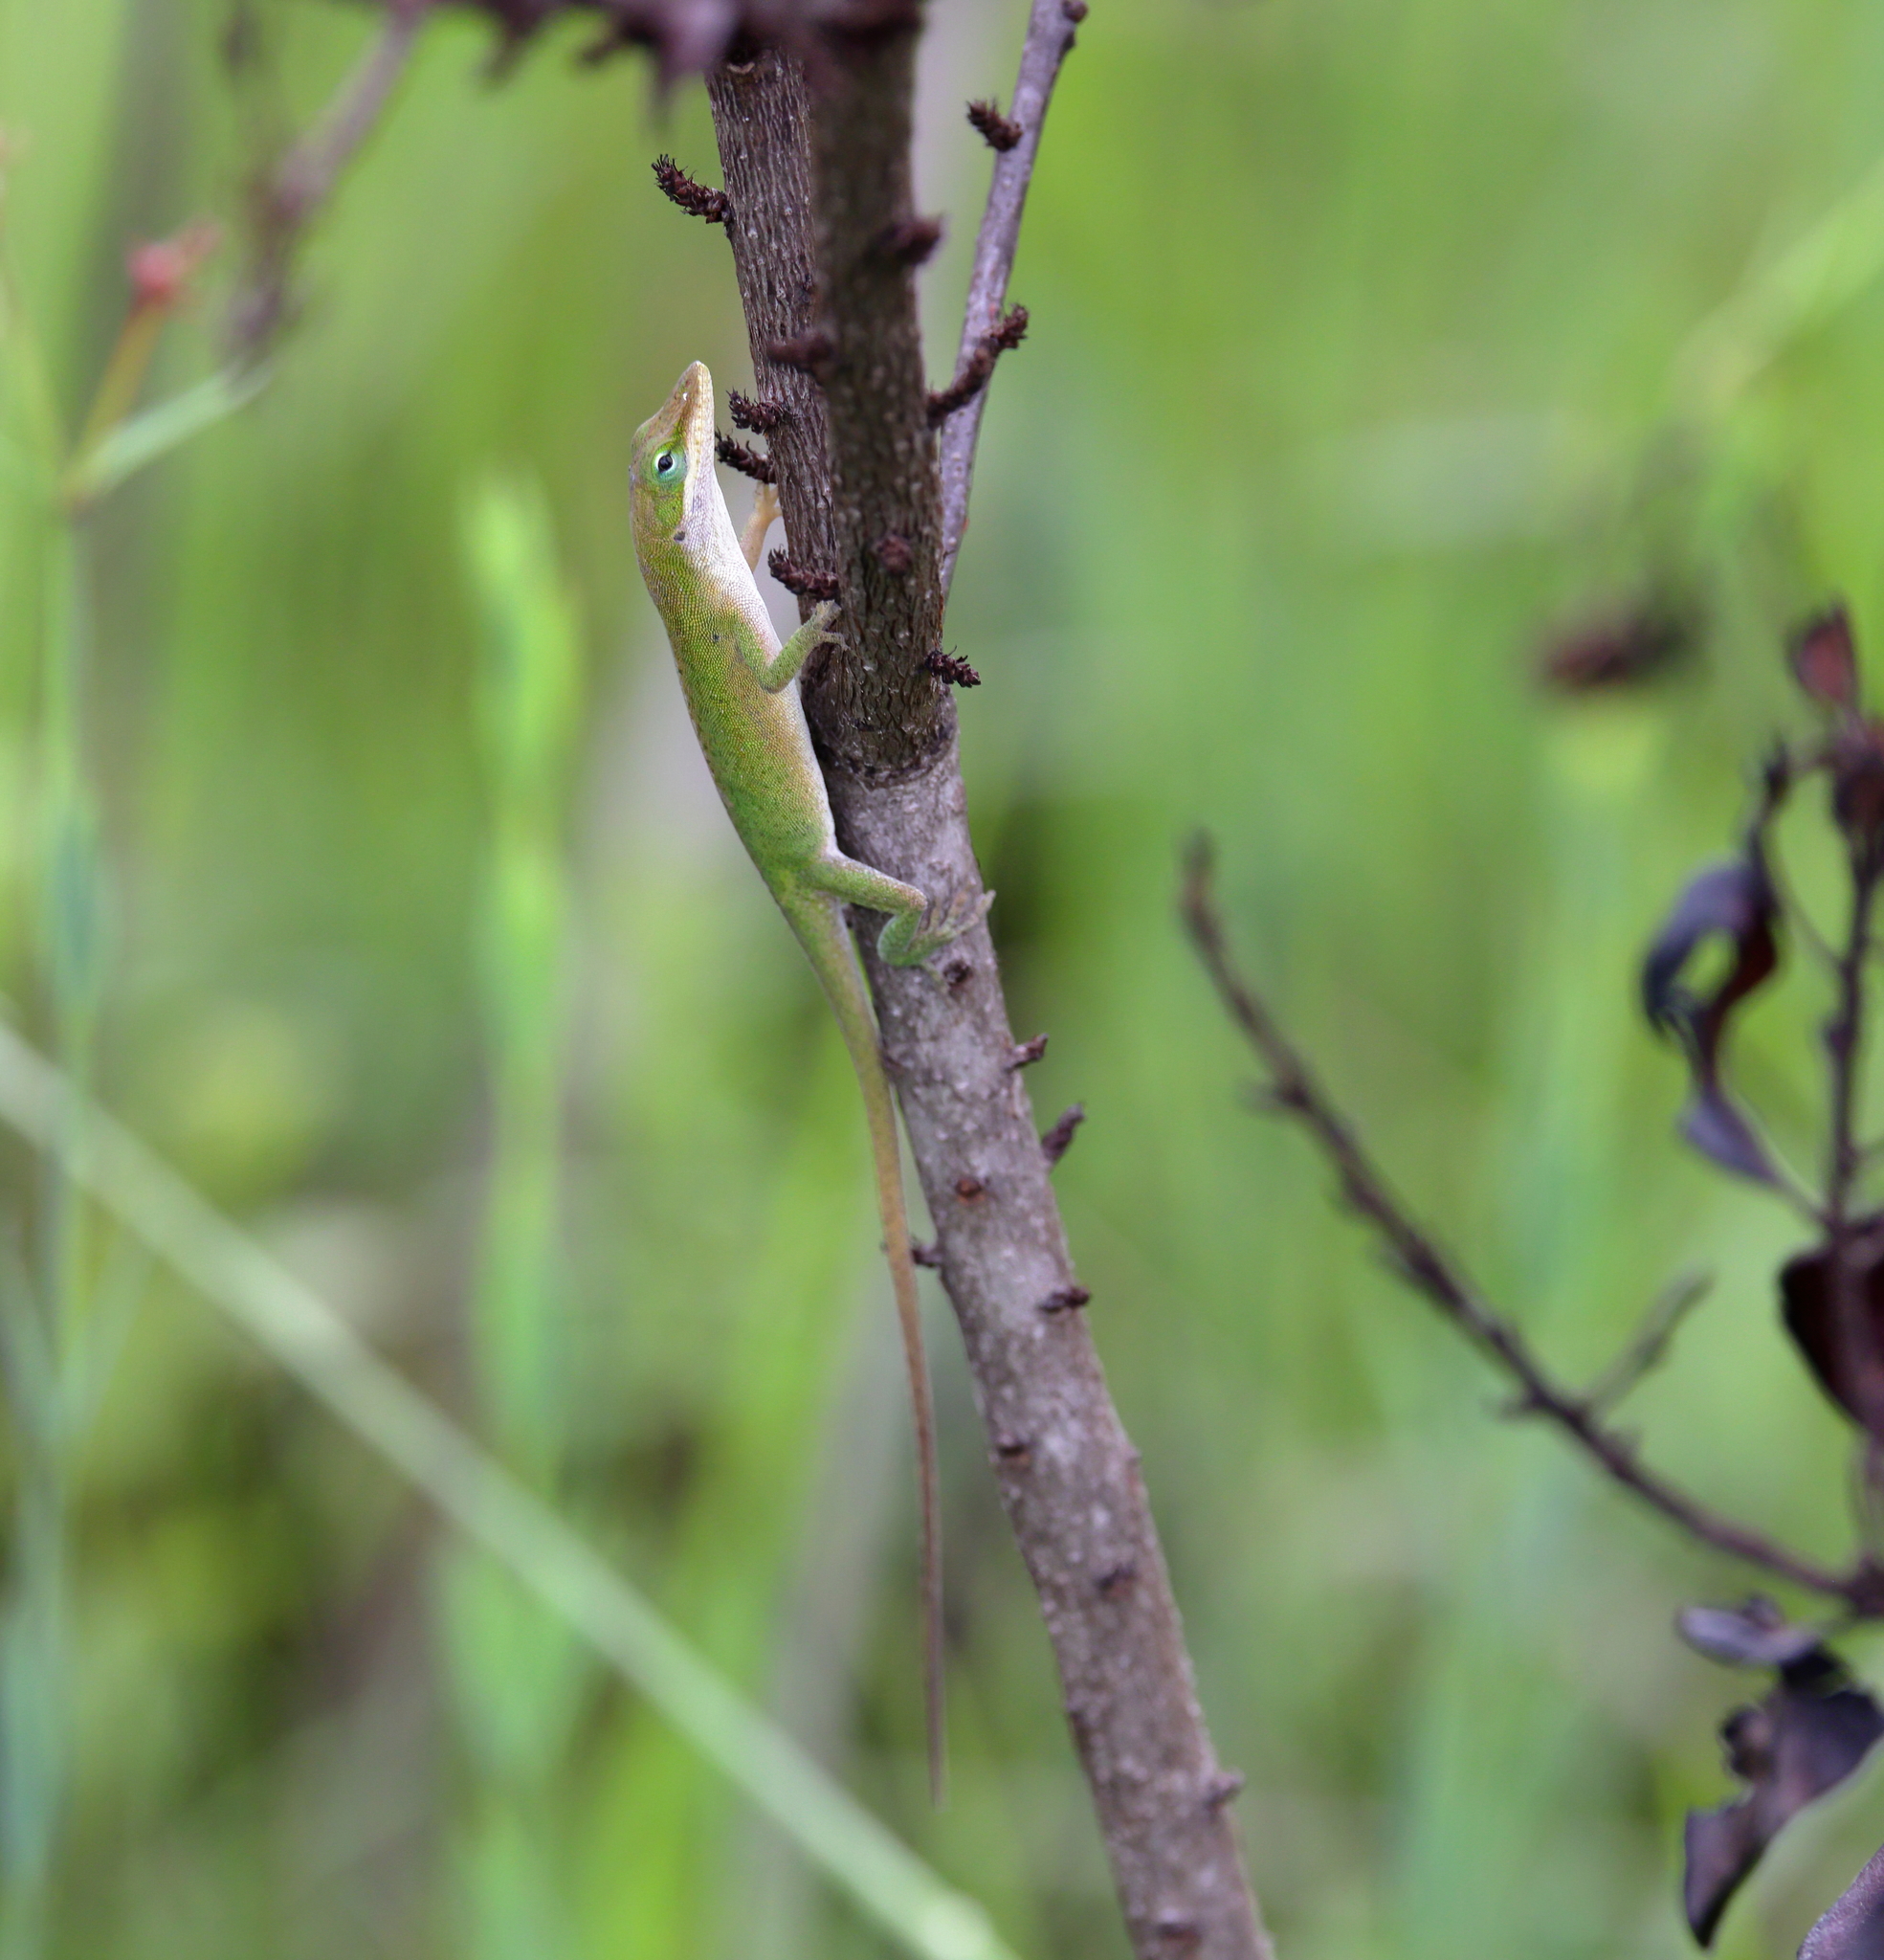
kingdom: Animalia
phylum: Chordata
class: Squamata
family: Dactyloidae
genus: Anolis
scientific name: Anolis carolinensis
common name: Green anole
